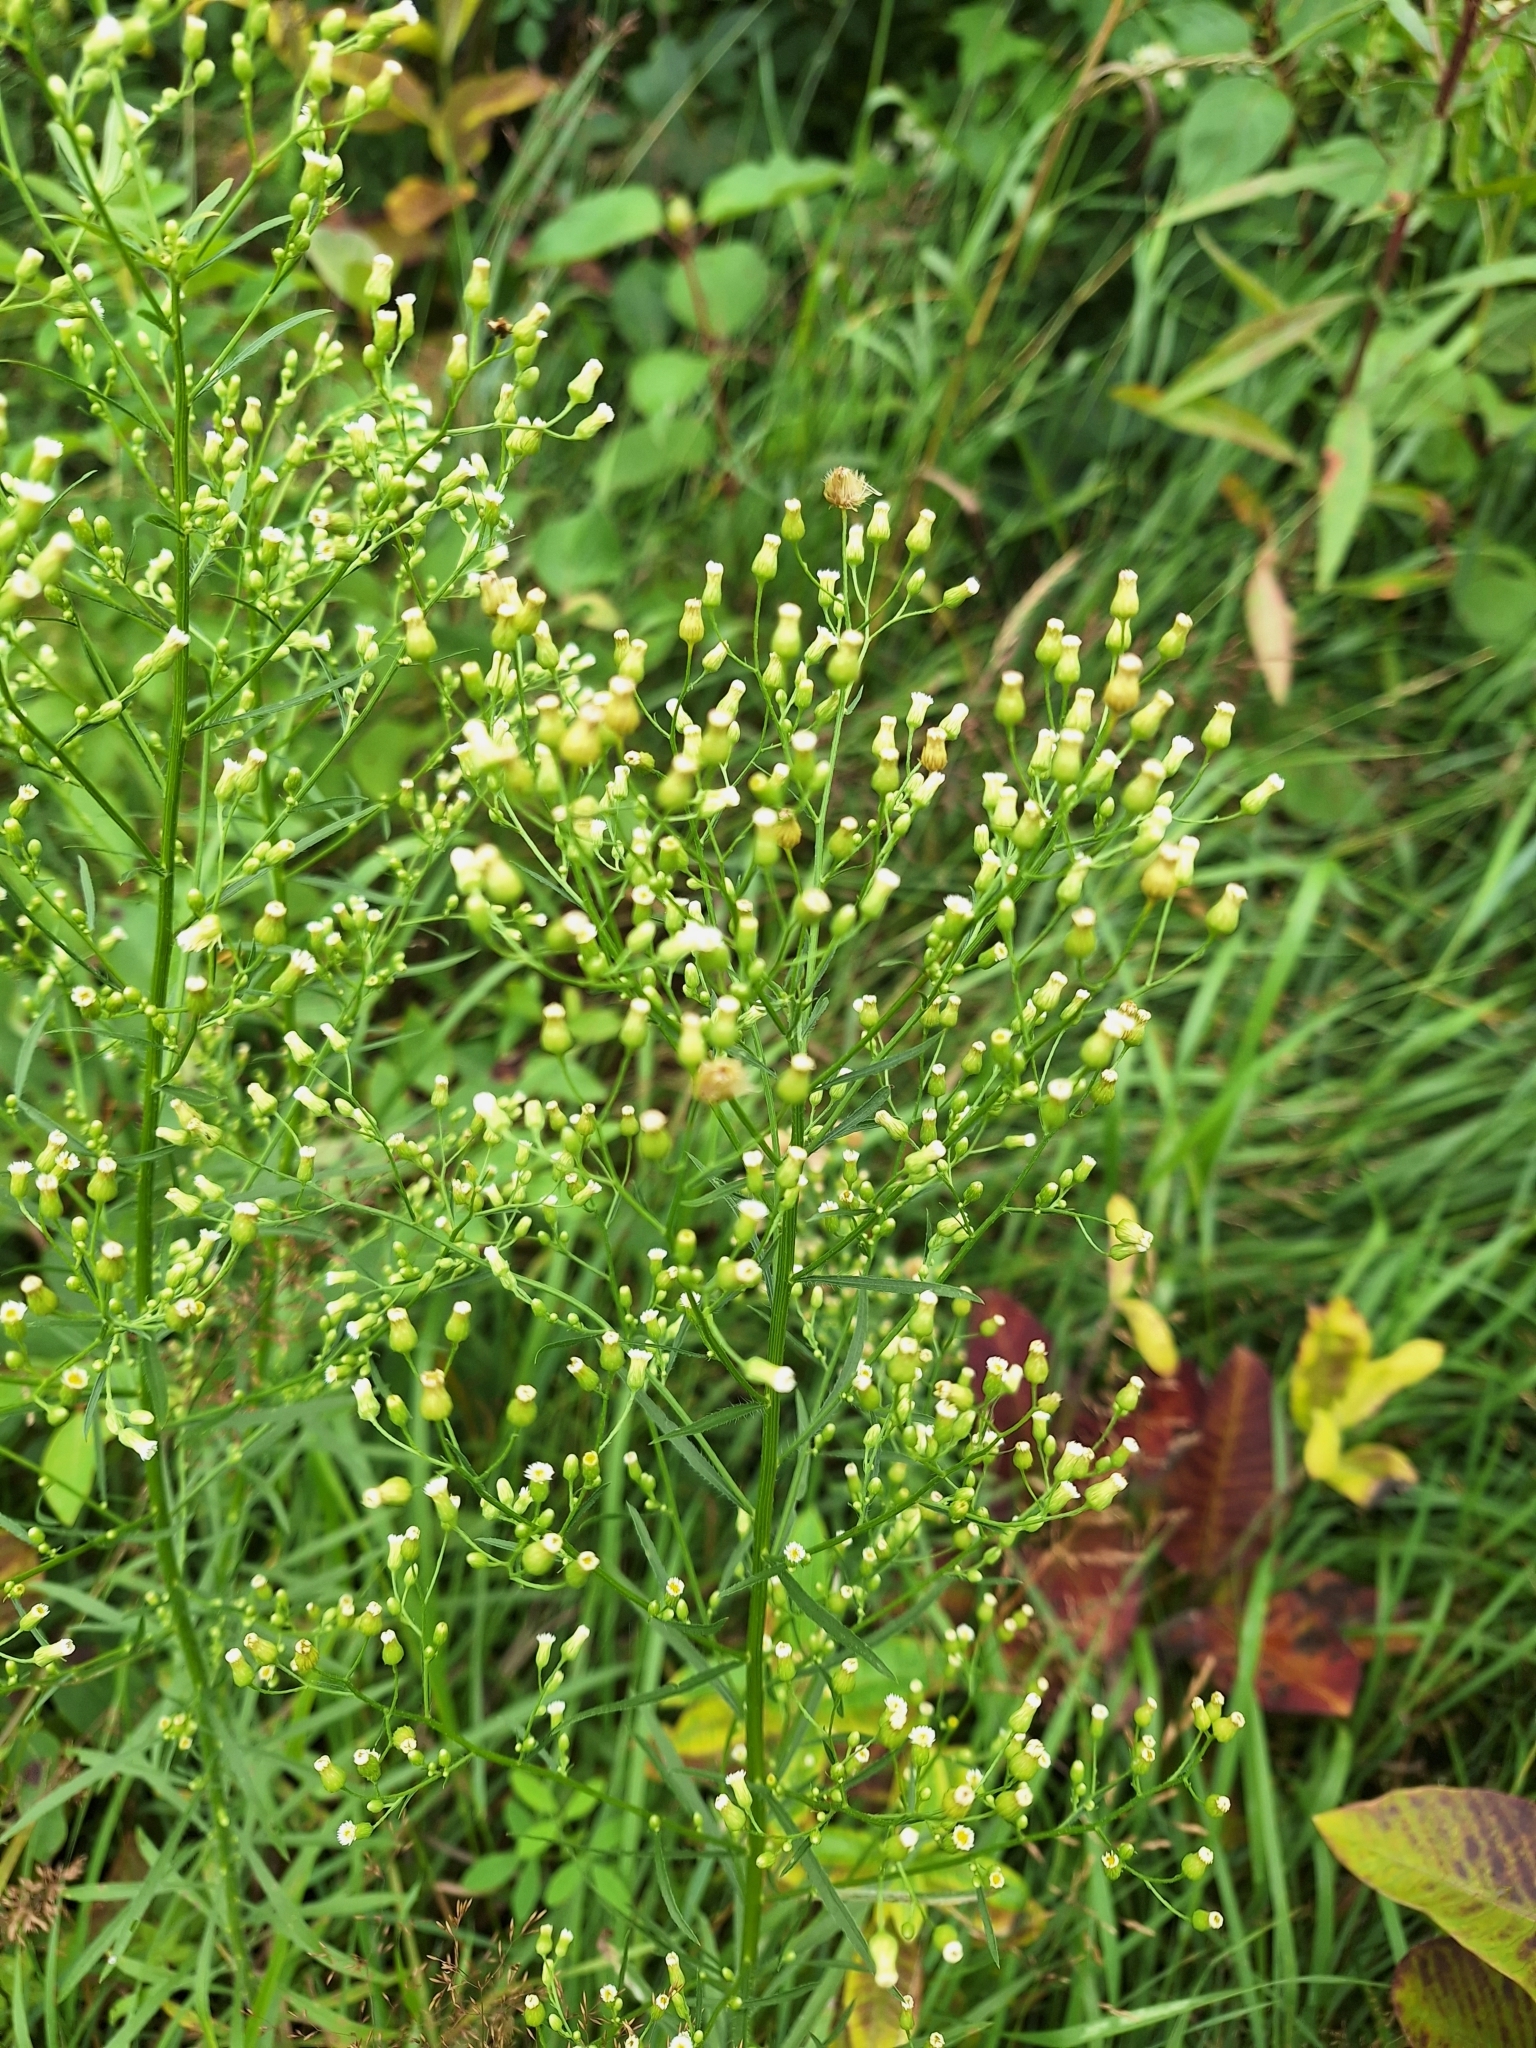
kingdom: Plantae
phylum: Tracheophyta
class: Magnoliopsida
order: Asterales
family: Asteraceae
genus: Erigeron
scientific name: Erigeron canadensis
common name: Canadian fleabane
